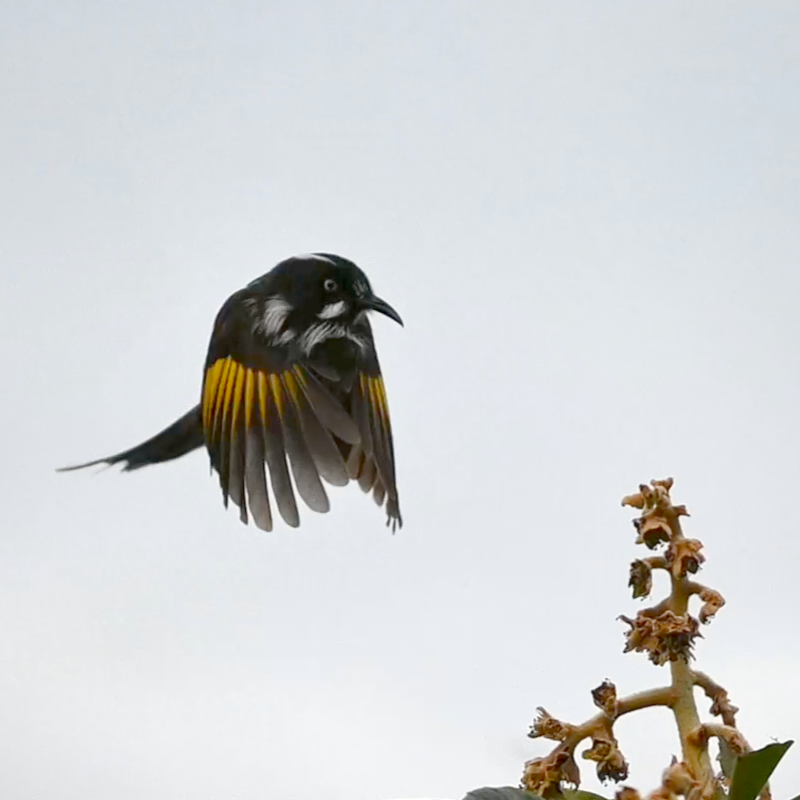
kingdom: Animalia
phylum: Chordata
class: Aves
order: Passeriformes
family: Meliphagidae
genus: Phylidonyris
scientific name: Phylidonyris novaehollandiae
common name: New holland honeyeater
